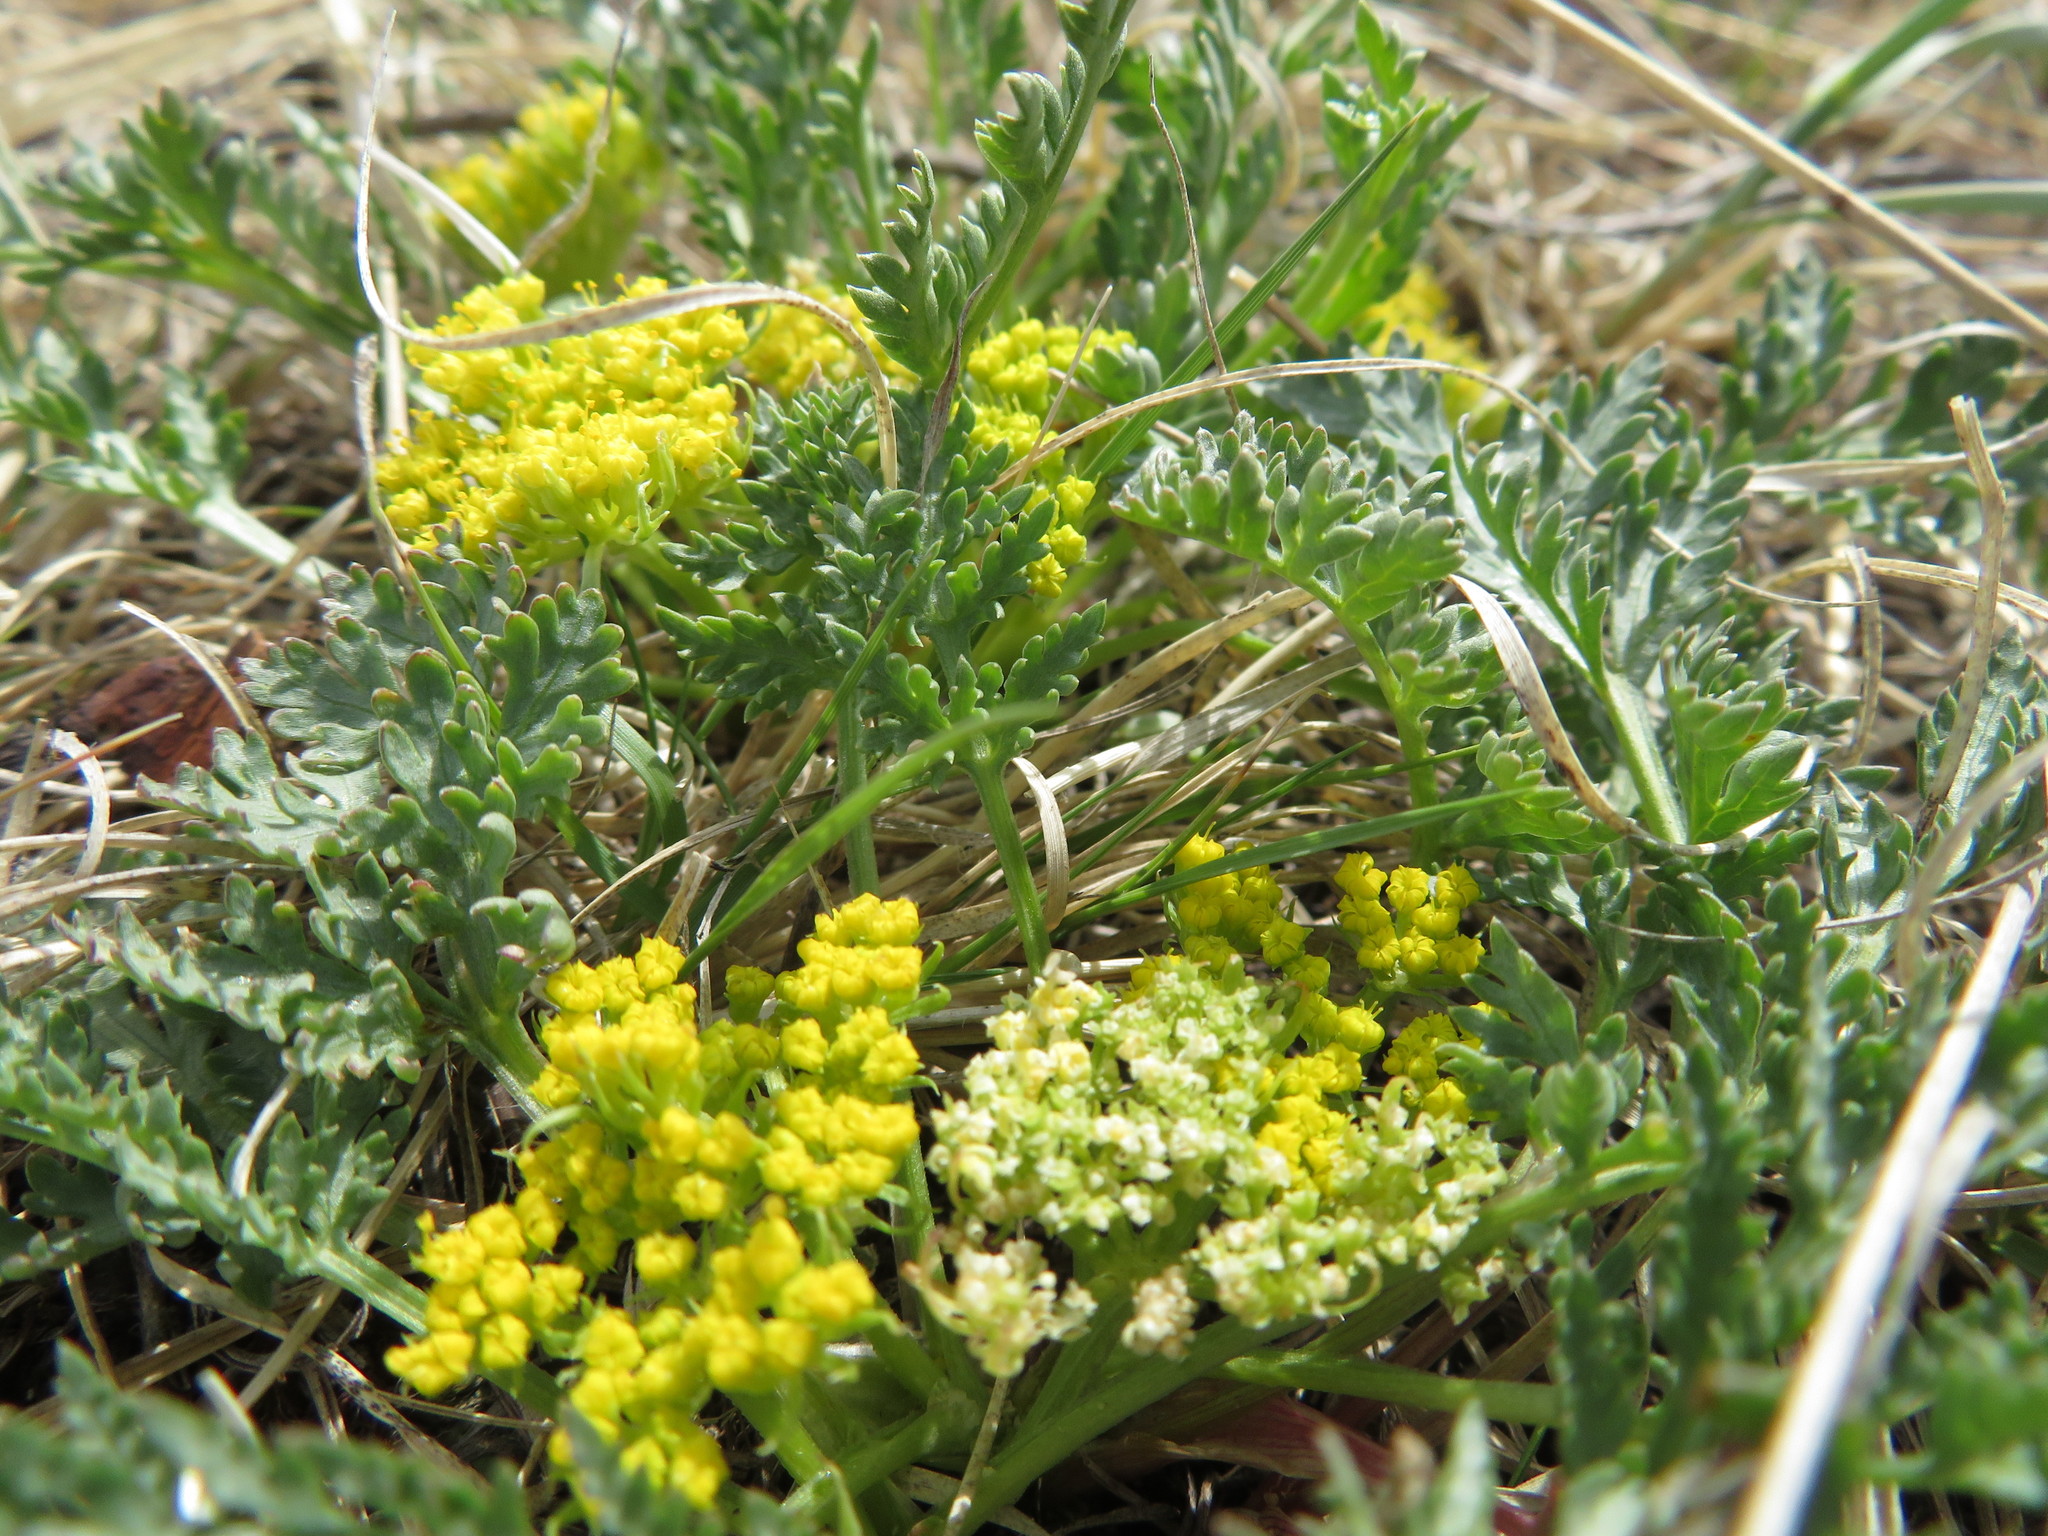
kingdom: Plantae
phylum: Tracheophyta
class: Magnoliopsida
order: Apiales
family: Apiaceae
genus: Musineon
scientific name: Musineon divaricatum
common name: Plains musineon
